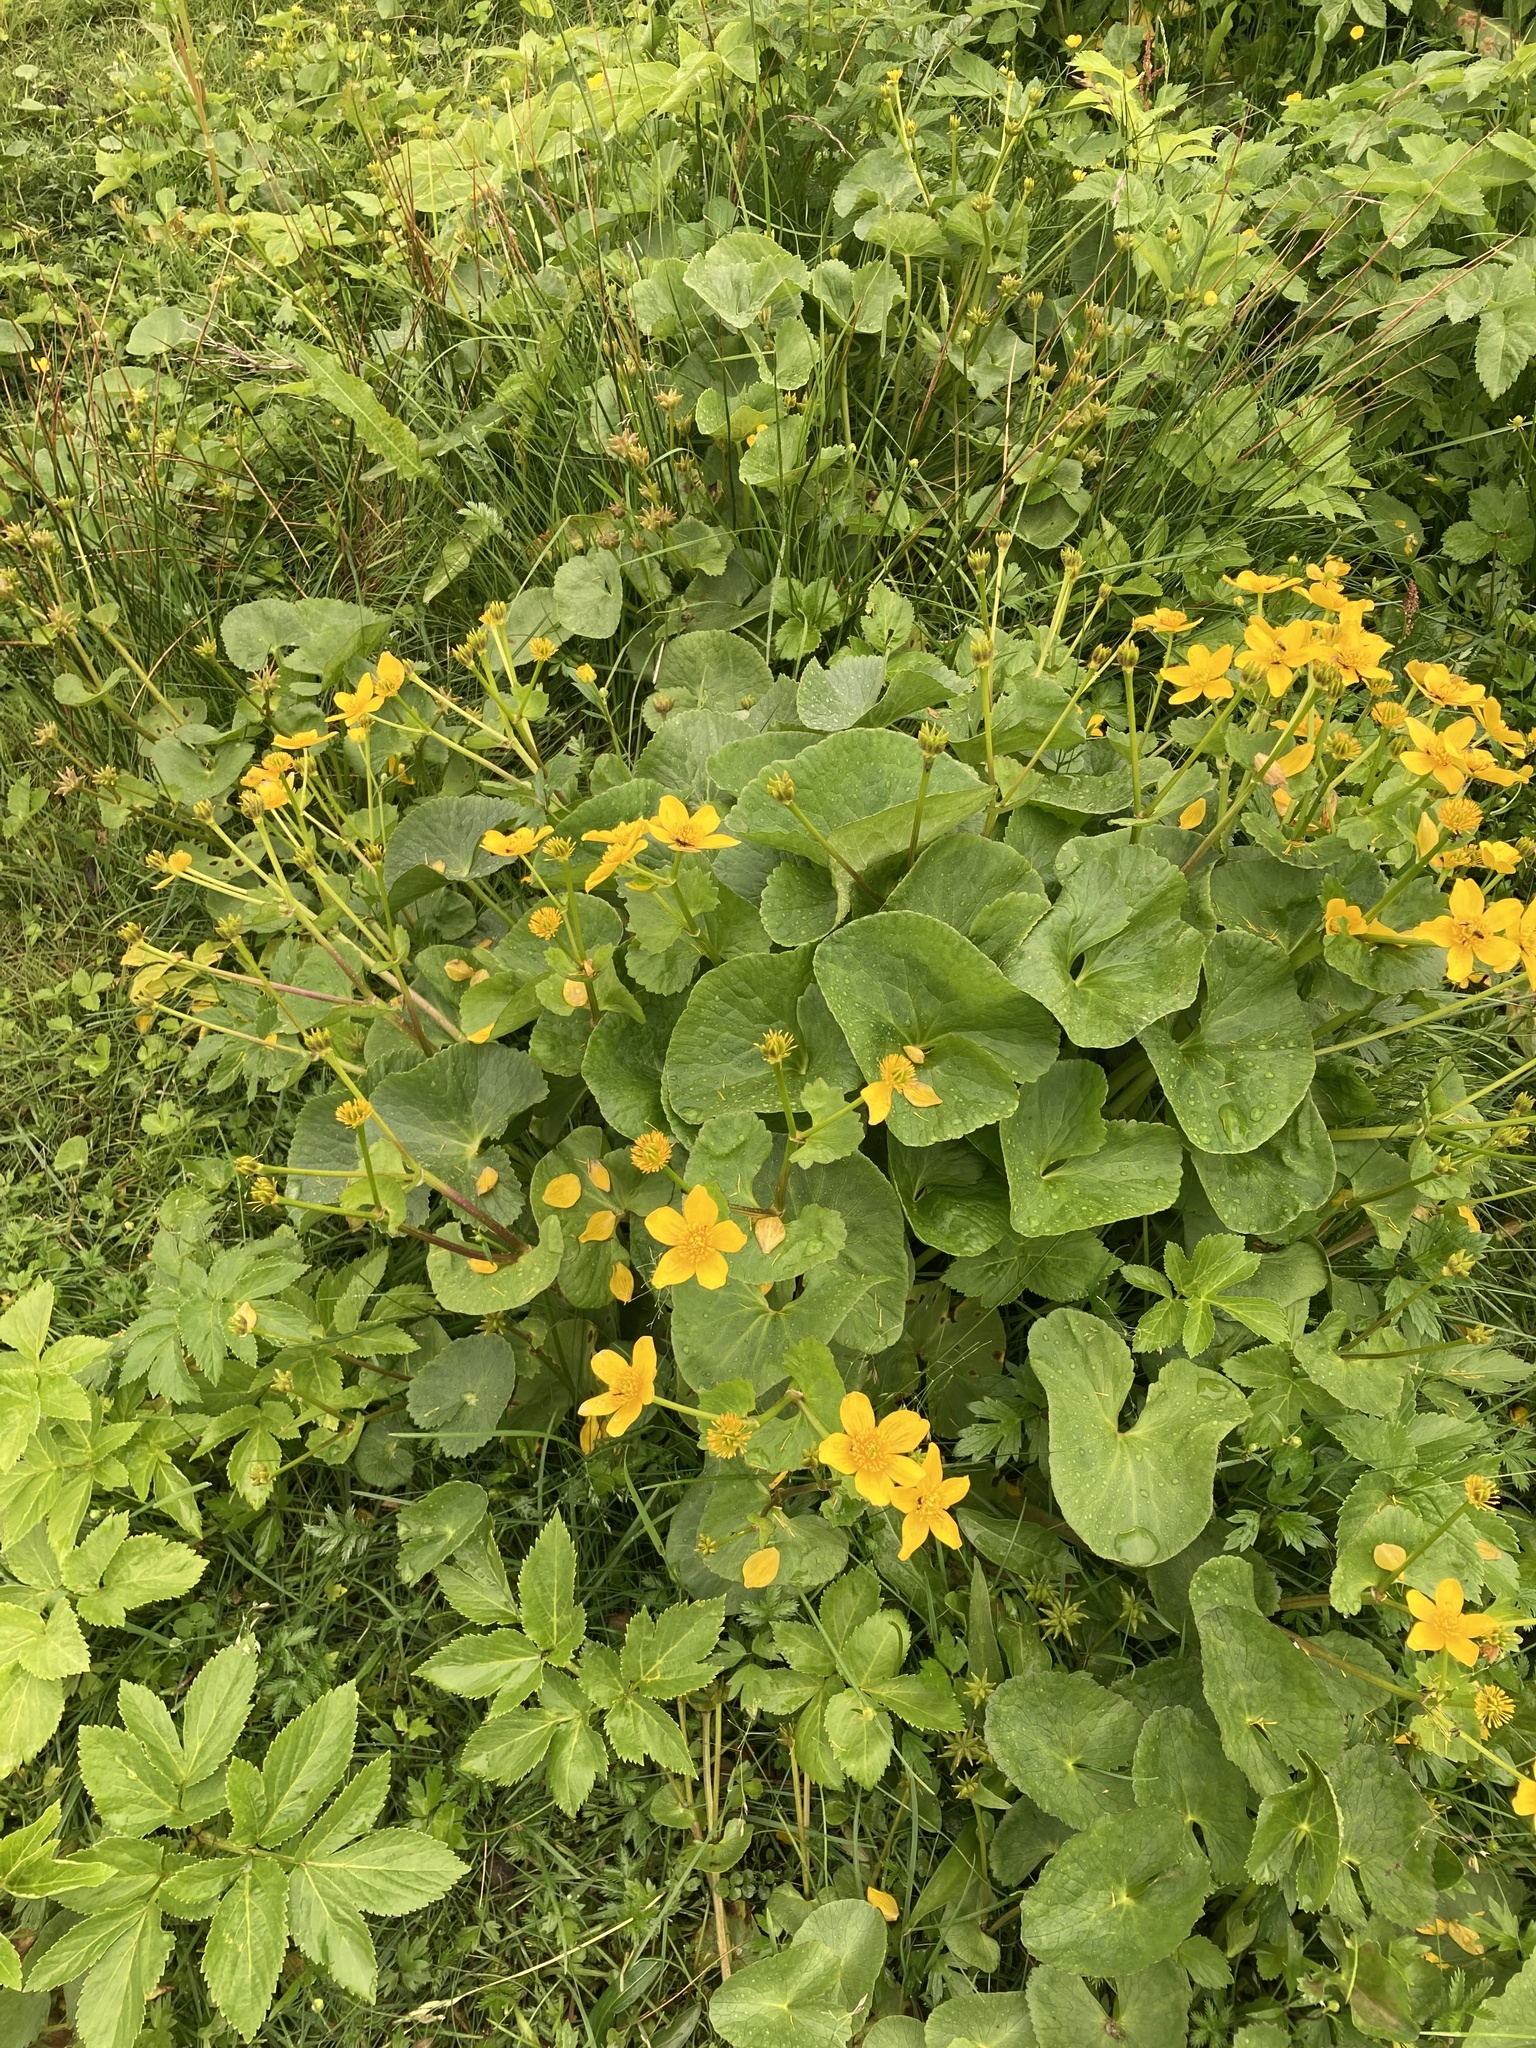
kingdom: Plantae
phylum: Tracheophyta
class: Magnoliopsida
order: Ranunculales
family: Ranunculaceae
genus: Caltha
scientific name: Caltha palustris
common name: Marsh marigold
